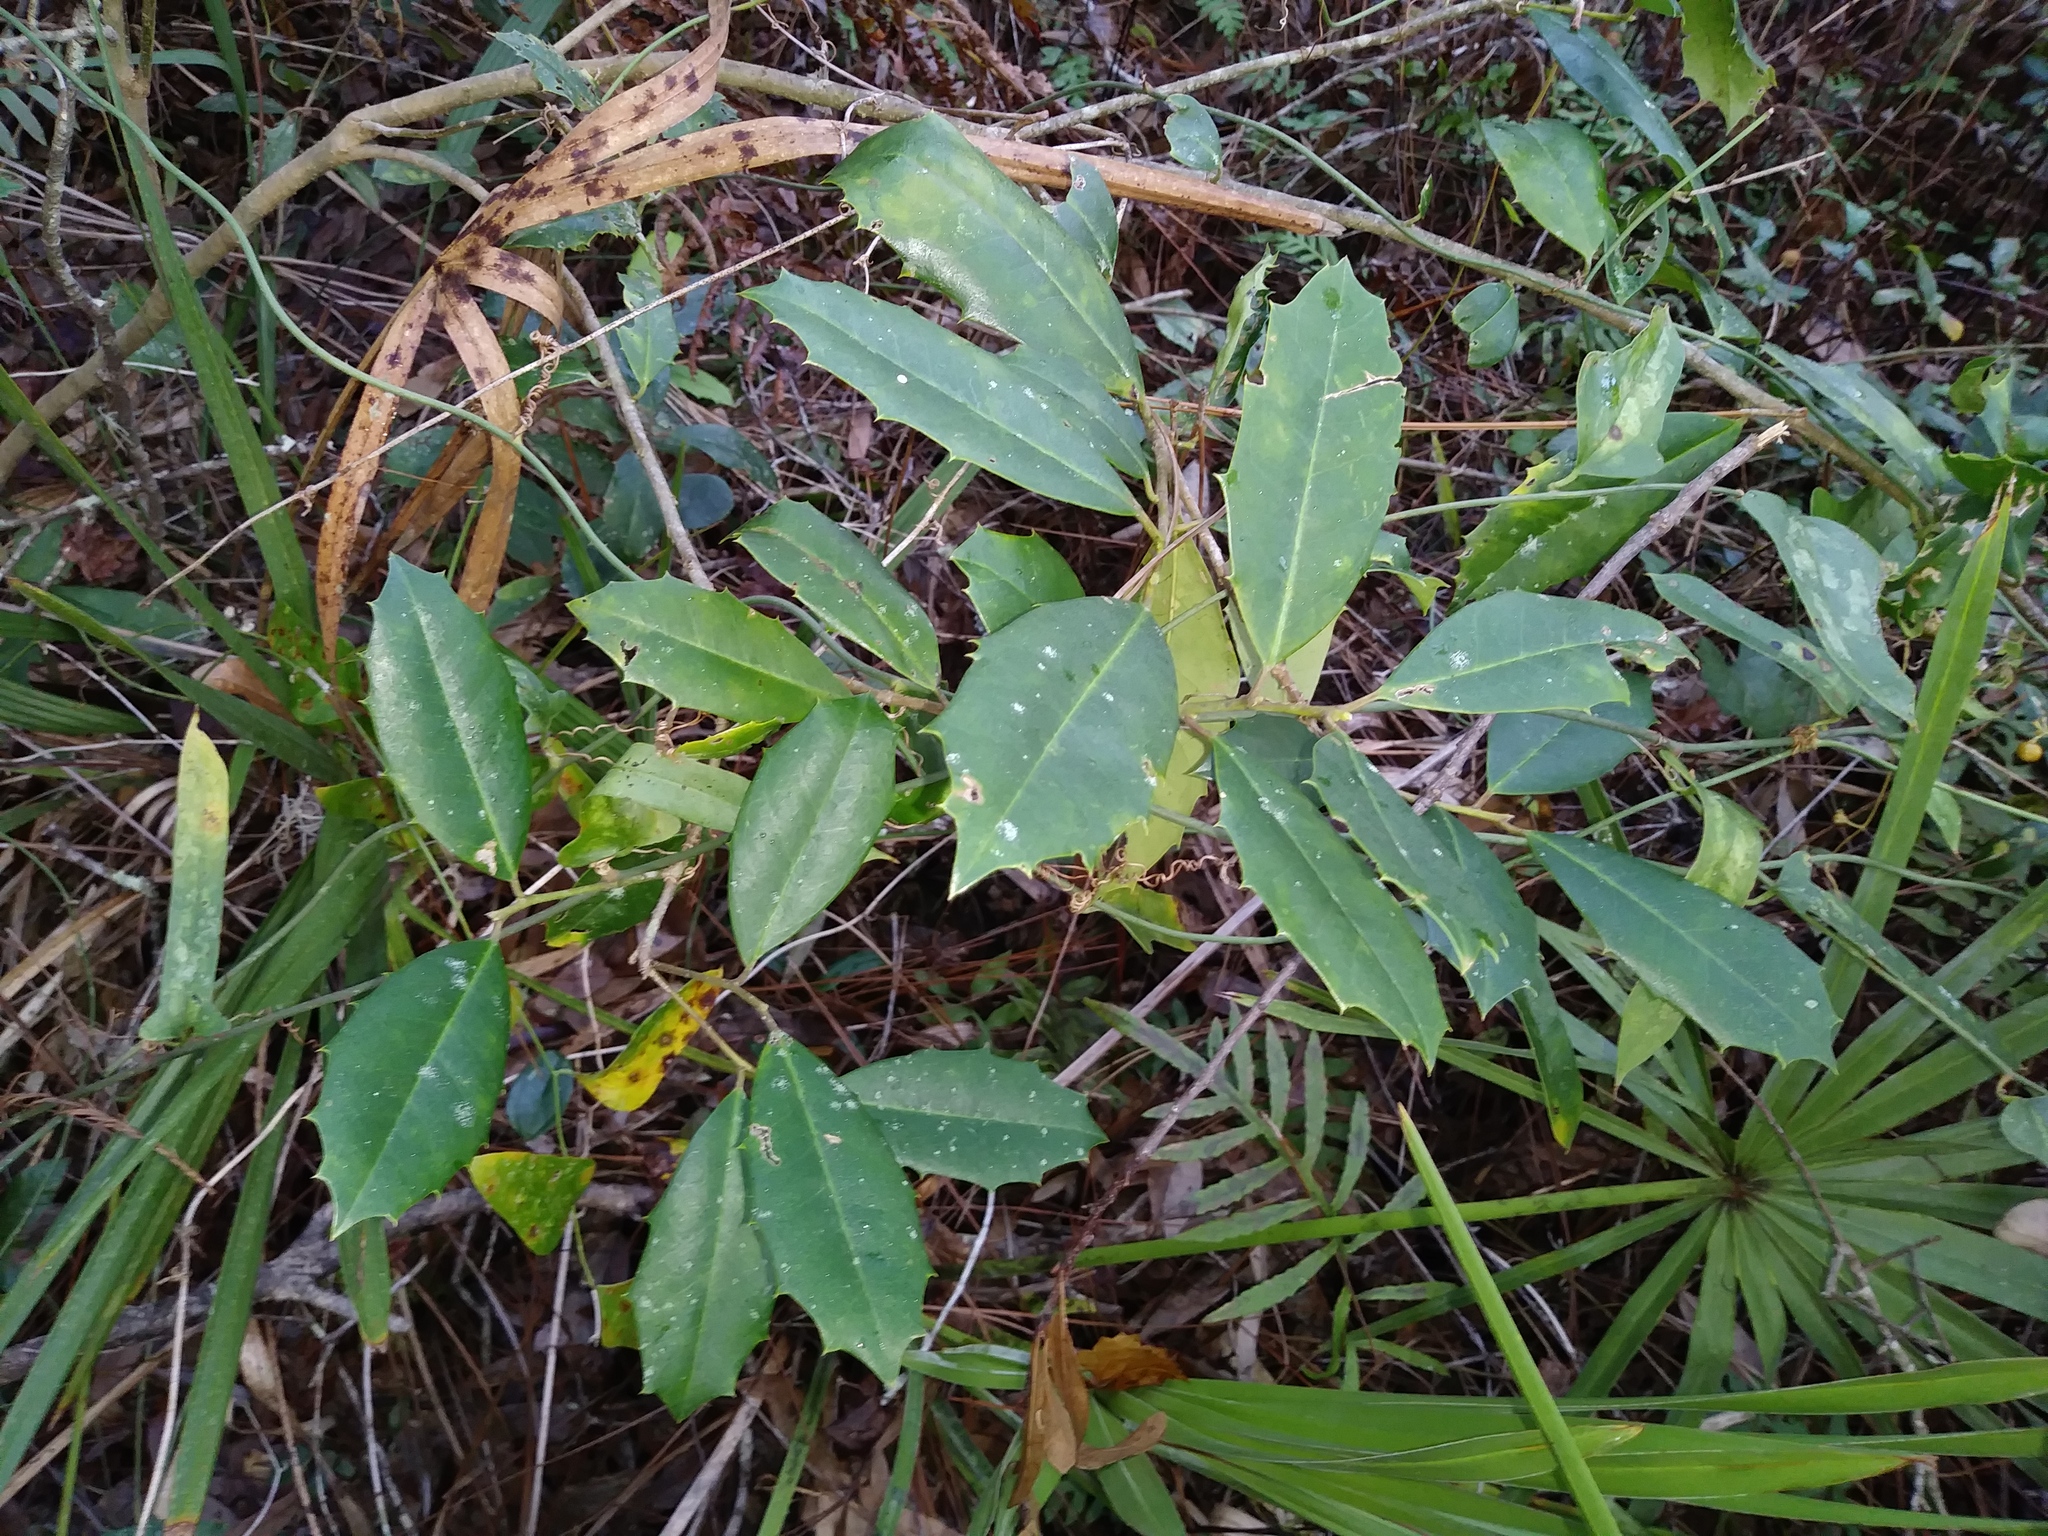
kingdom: Plantae
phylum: Tracheophyta
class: Magnoliopsida
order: Aquifoliales
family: Aquifoliaceae
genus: Ilex
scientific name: Ilex opaca
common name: American holly
